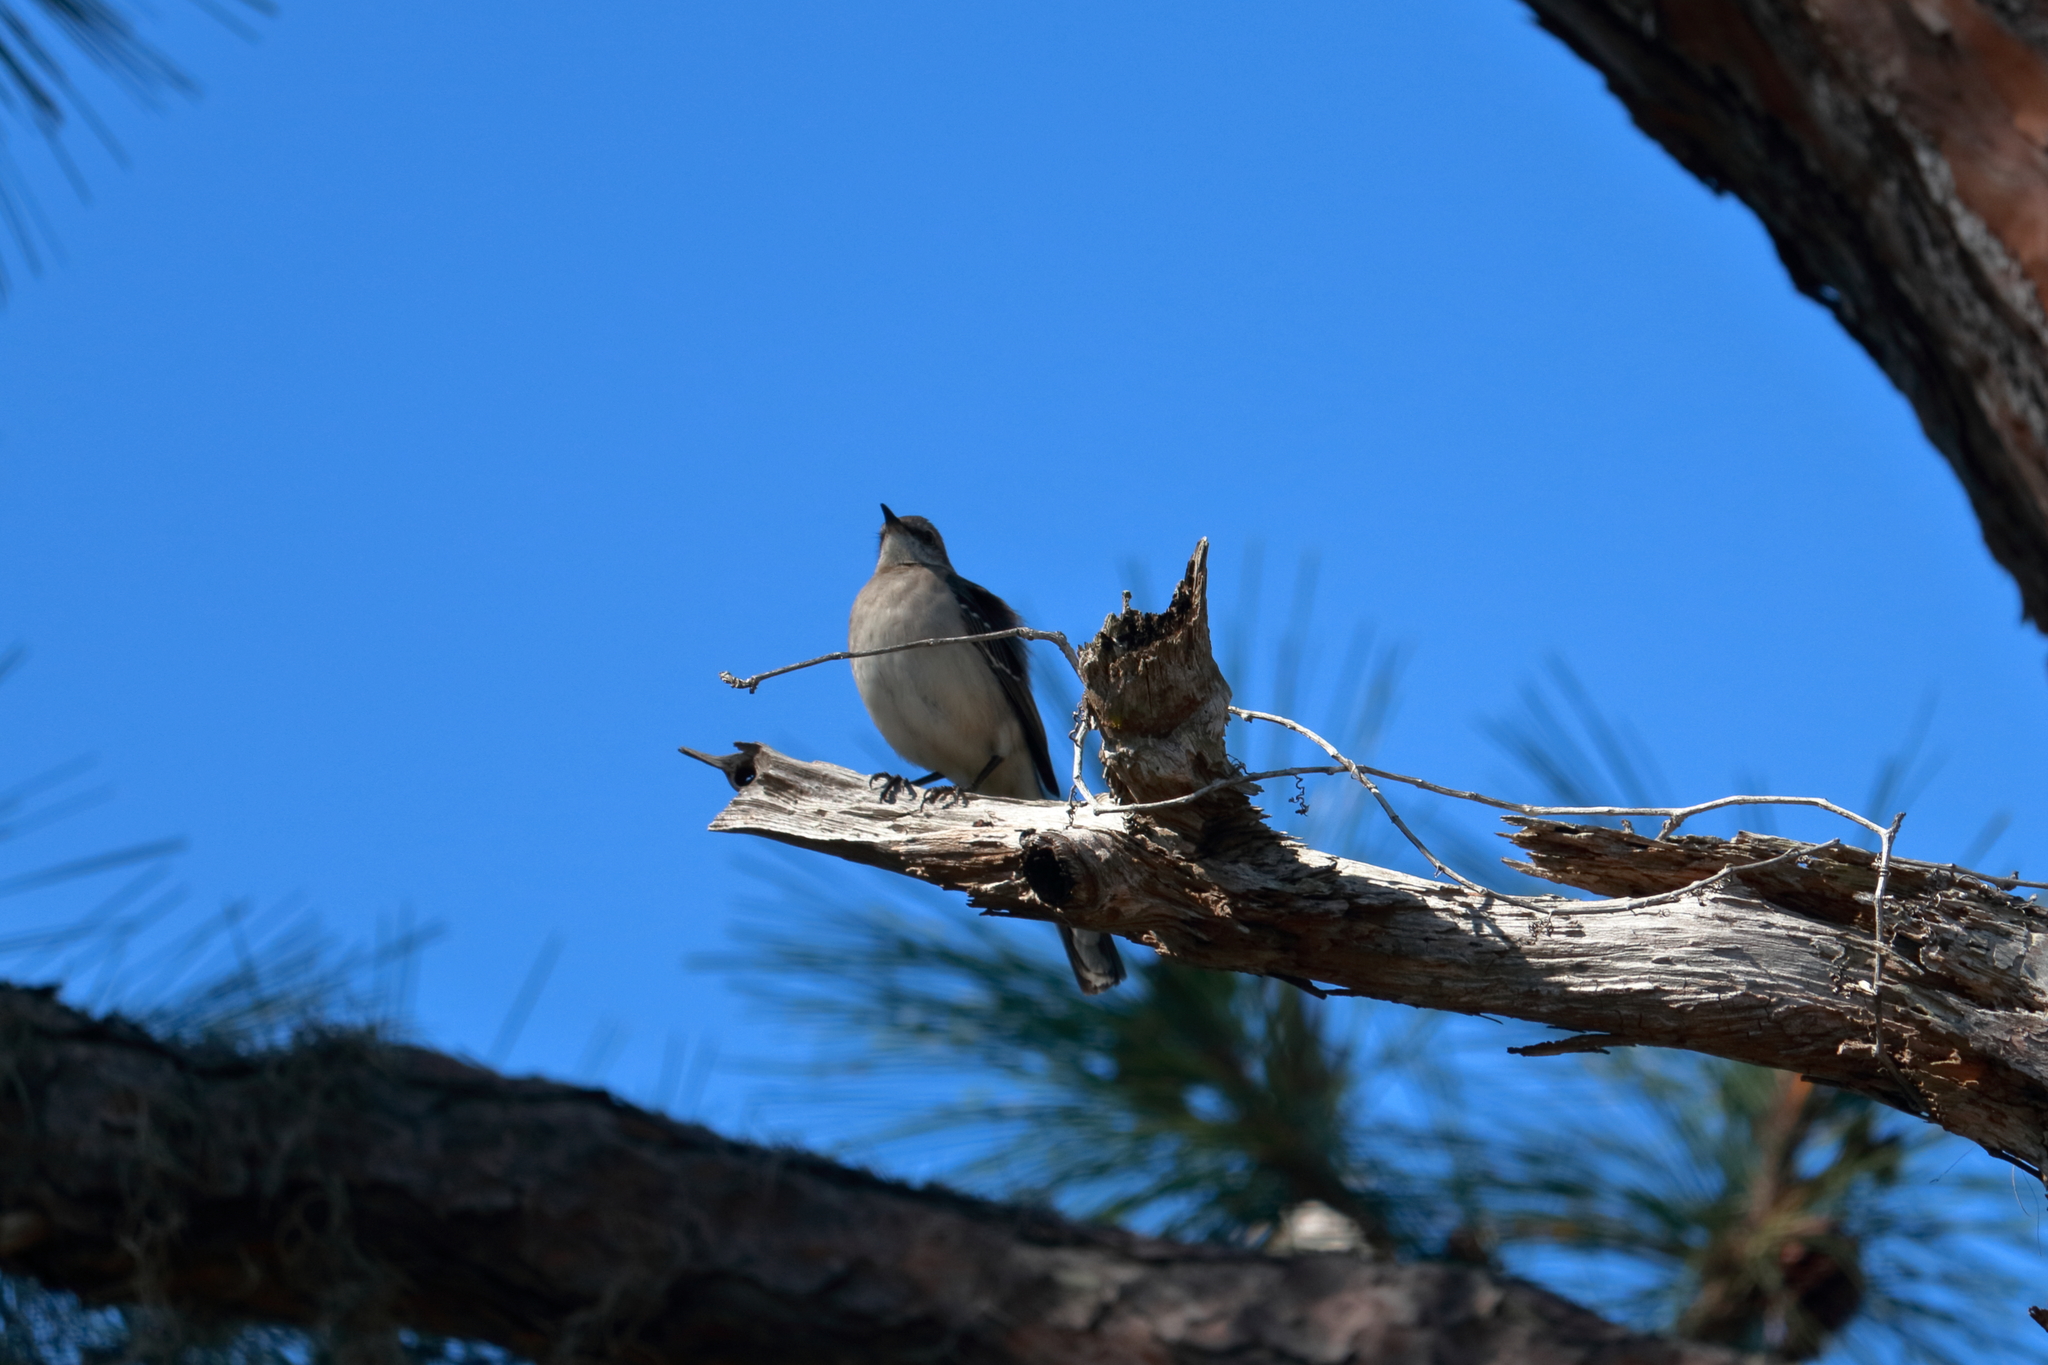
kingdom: Animalia
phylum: Chordata
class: Aves
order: Passeriformes
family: Mimidae
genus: Mimus
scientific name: Mimus polyglottos
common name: Northern mockingbird
